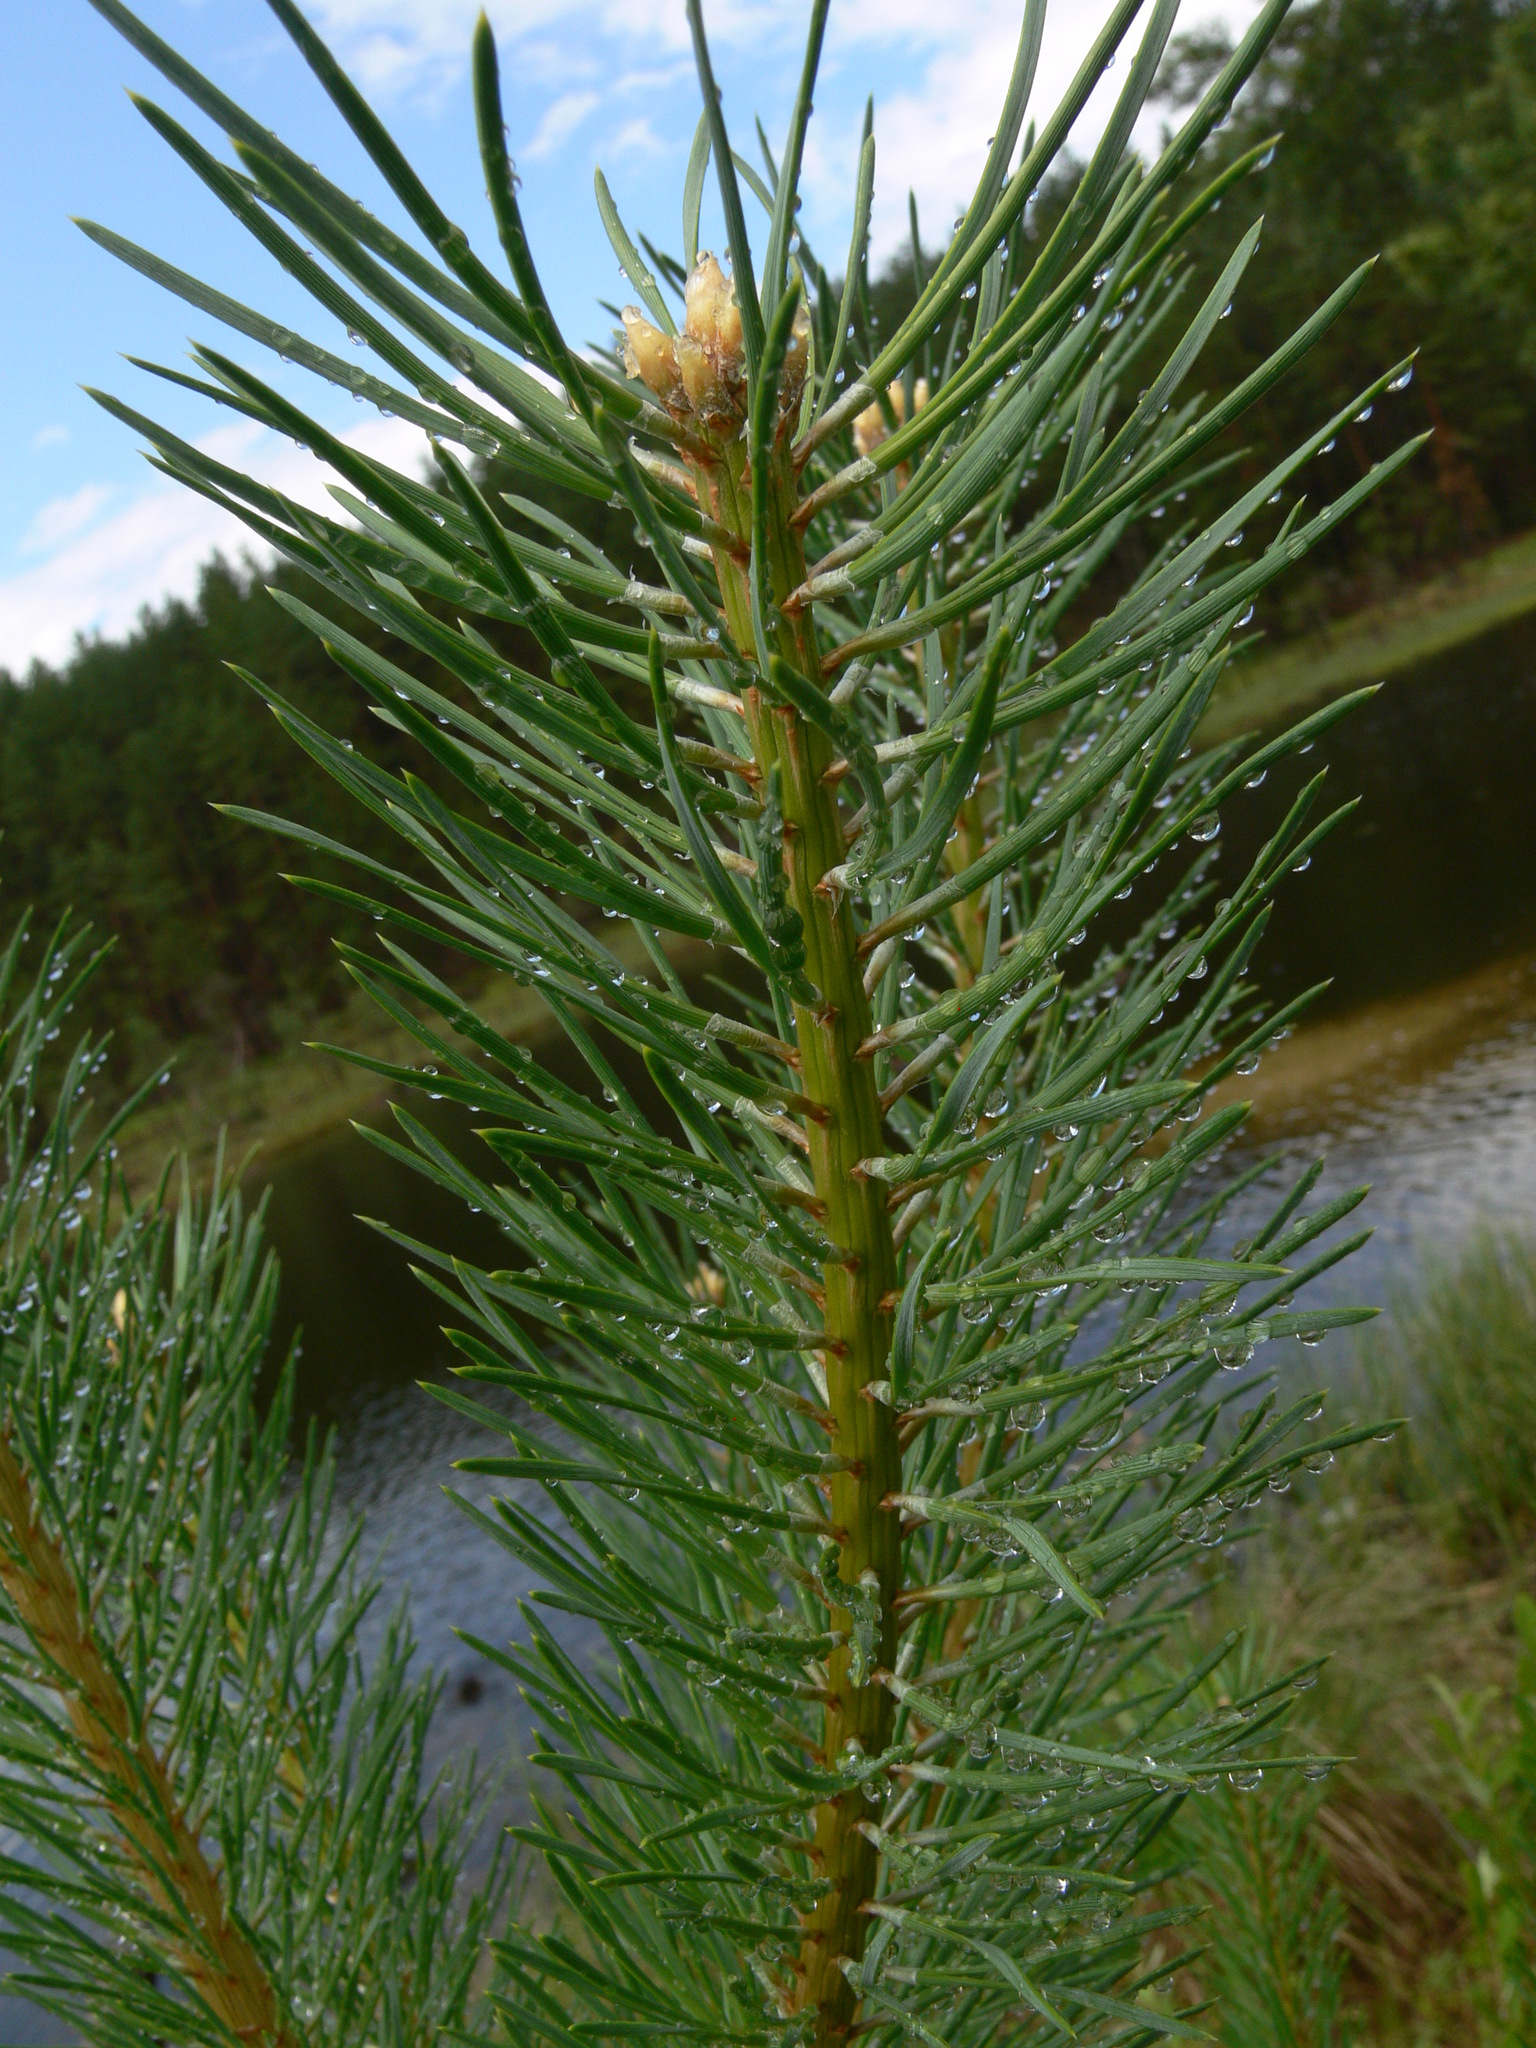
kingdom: Plantae
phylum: Tracheophyta
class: Pinopsida
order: Pinales
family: Pinaceae
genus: Pinus
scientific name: Pinus sylvestris
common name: Scots pine
